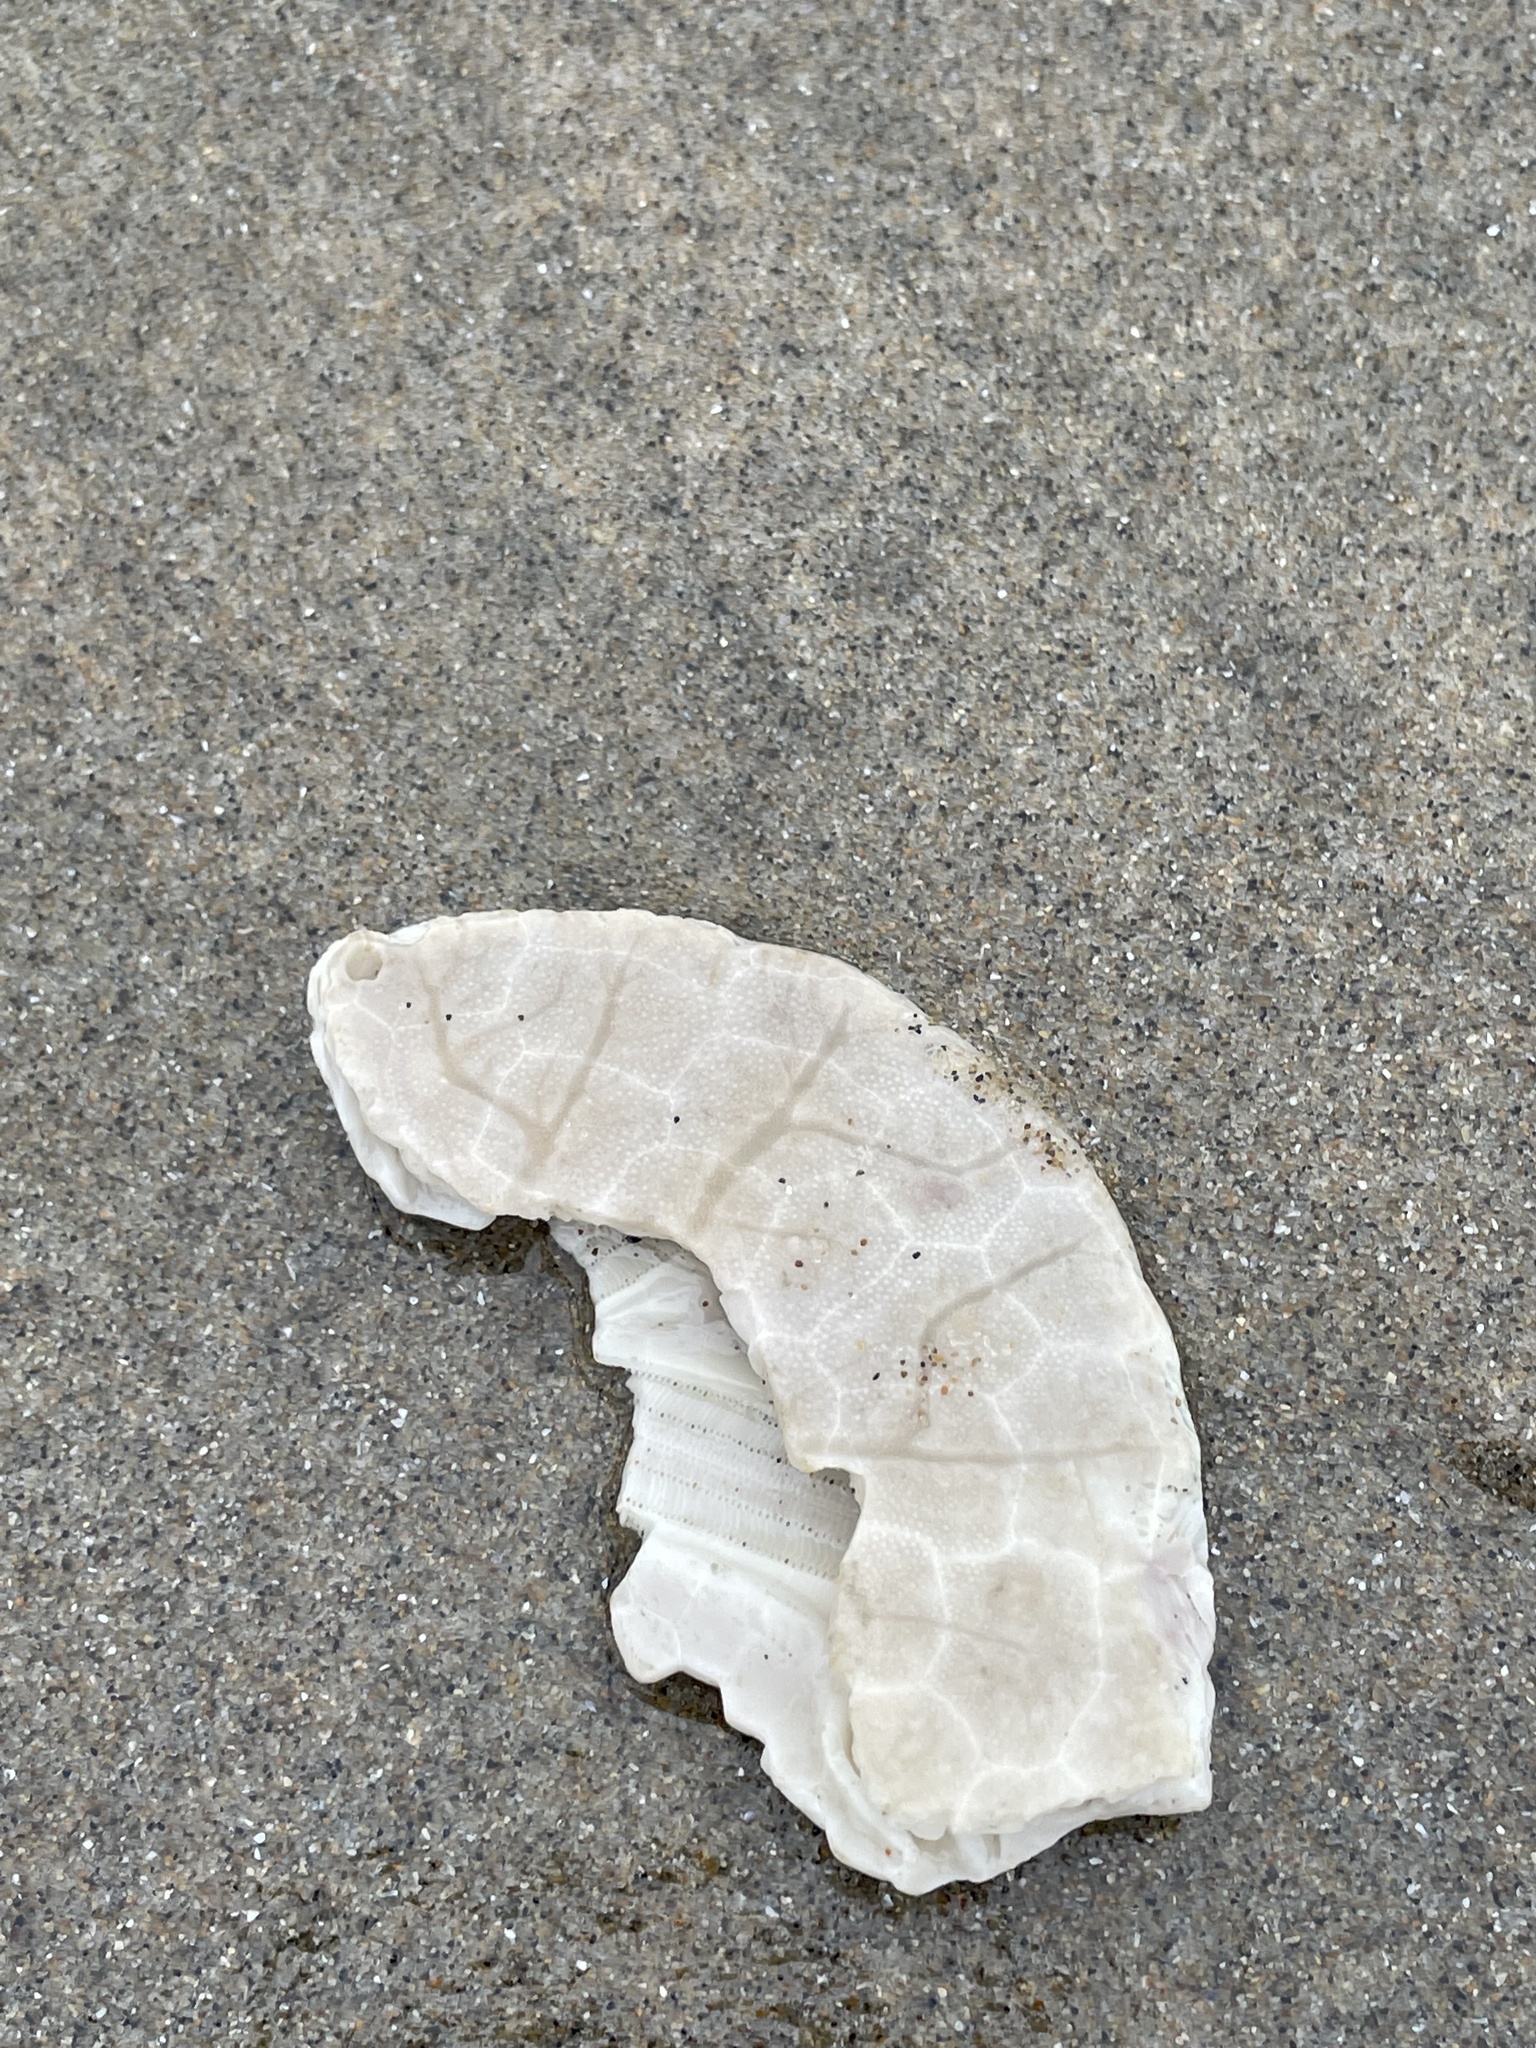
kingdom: Animalia
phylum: Echinodermata
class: Echinoidea
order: Echinolampadacea
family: Dendrasteridae
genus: Dendraster
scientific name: Dendraster excentricus
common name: Eccentric sand dollar sea urchin
